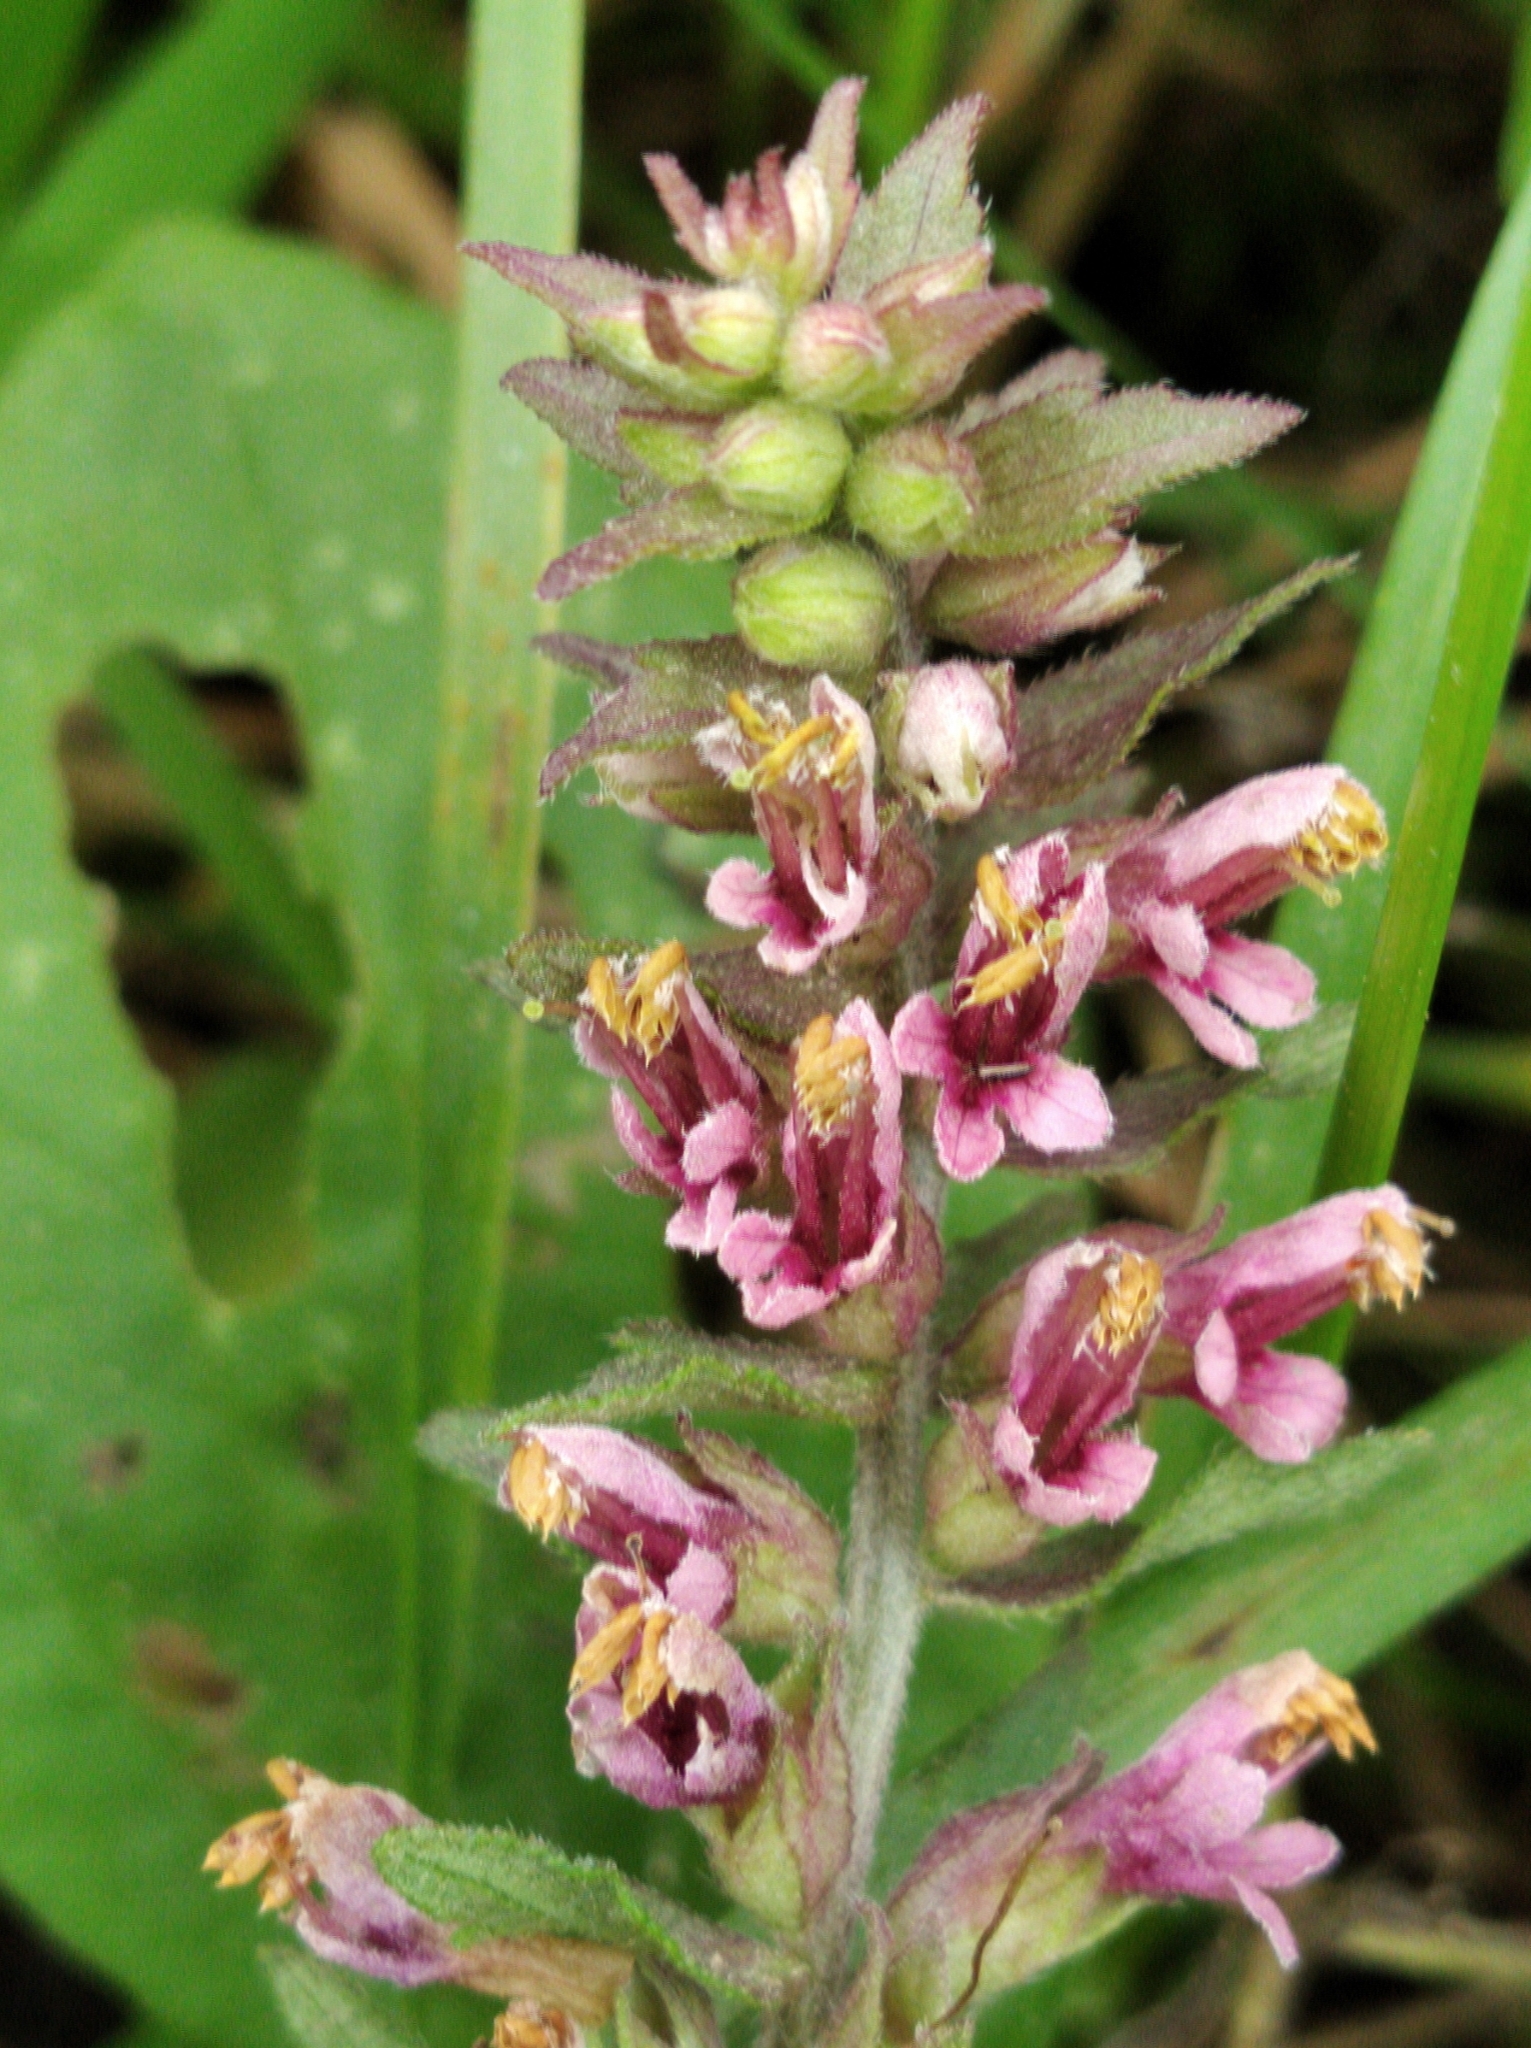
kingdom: Plantae
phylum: Tracheophyta
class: Magnoliopsida
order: Lamiales
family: Orobanchaceae
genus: Odontites
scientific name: Odontites vulgaris
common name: Broomrape
